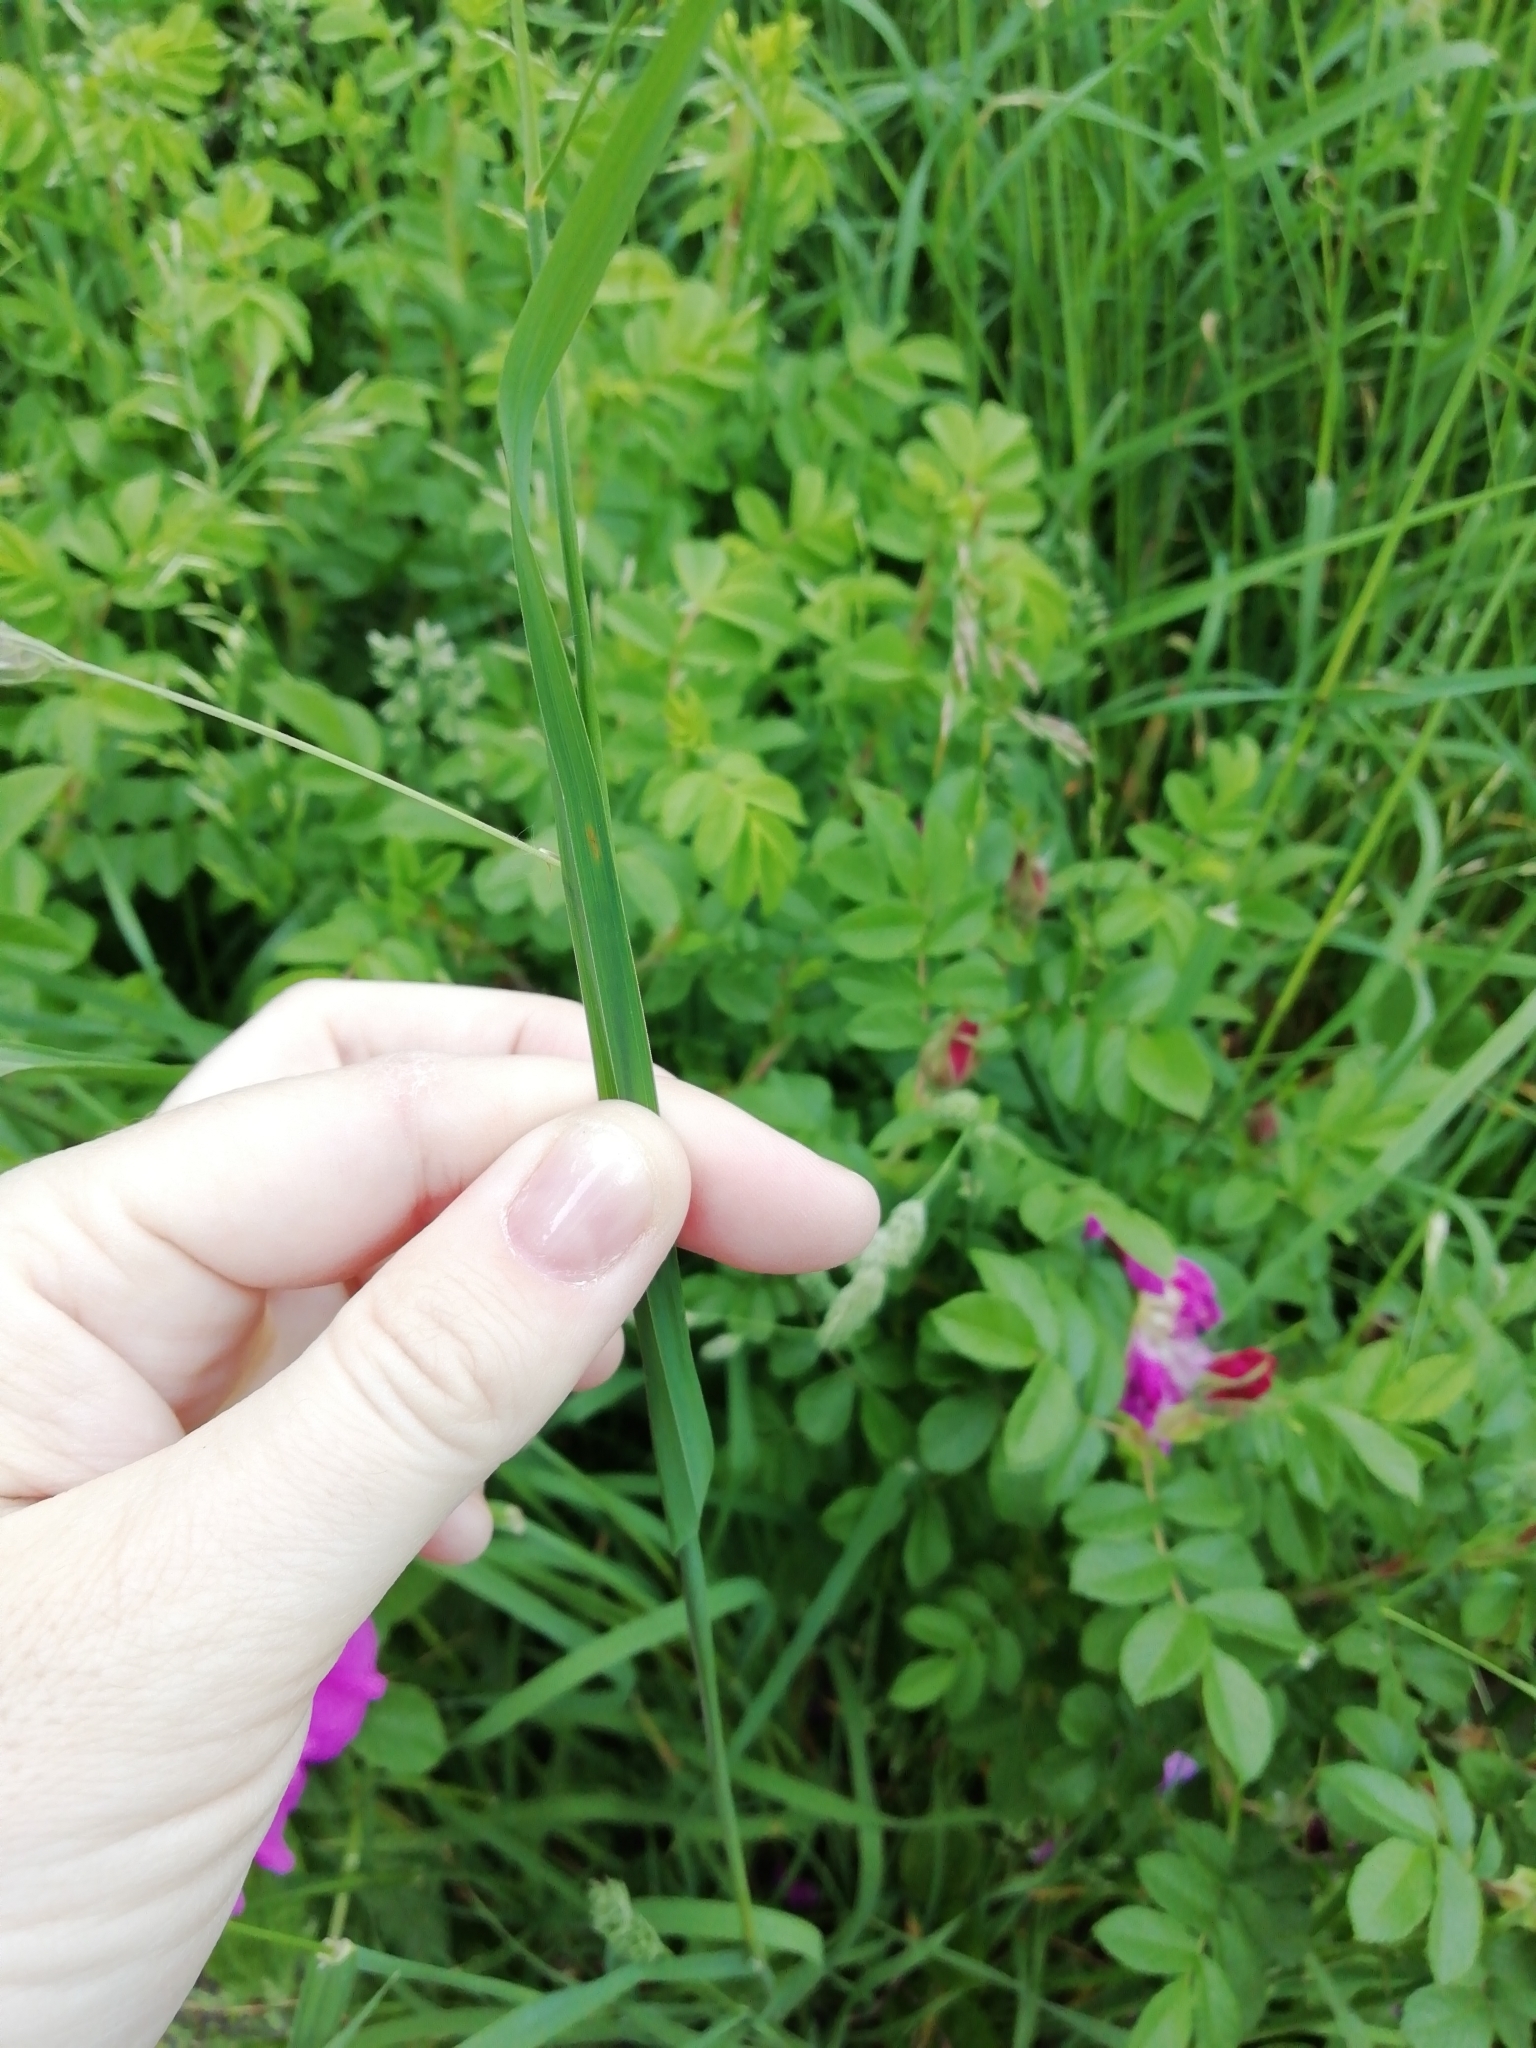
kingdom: Plantae
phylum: Tracheophyta
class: Liliopsida
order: Poales
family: Poaceae
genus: Dactylis
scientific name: Dactylis glomerata
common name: Orchardgrass
